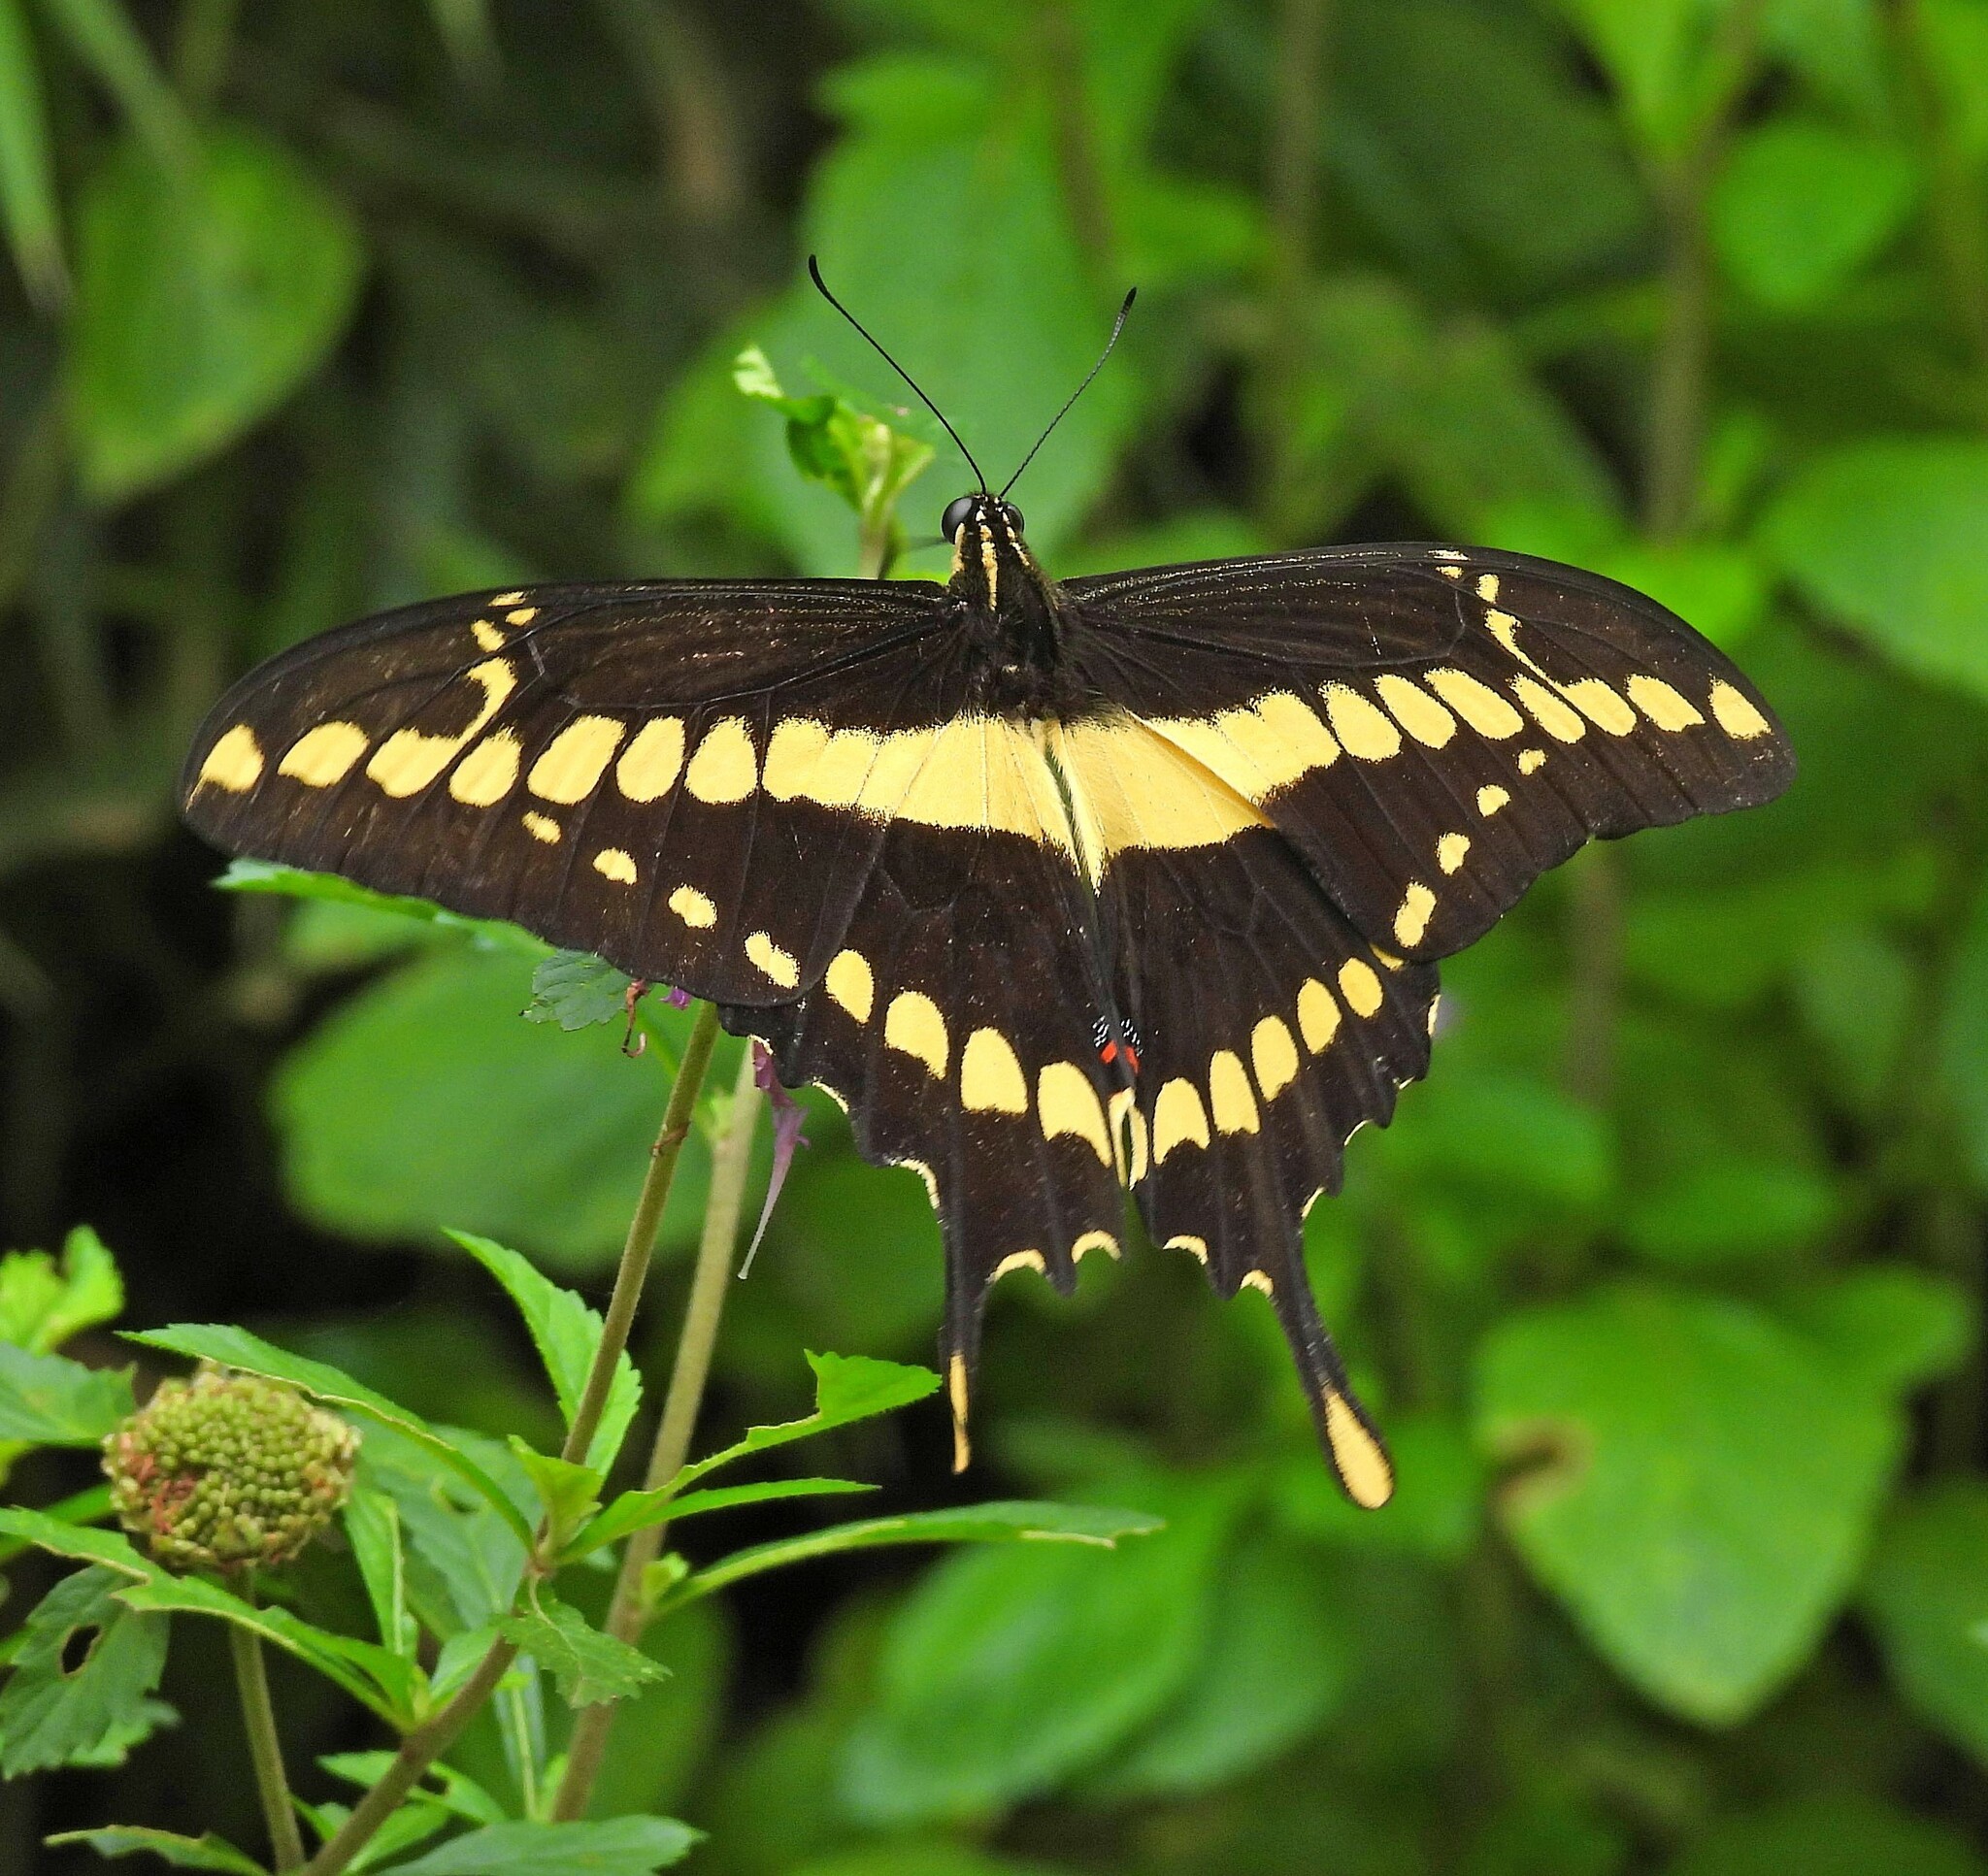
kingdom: Animalia
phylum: Arthropoda
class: Insecta
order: Lepidoptera
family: Papilionidae
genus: Papilio
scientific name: Papilio thoas
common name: King swallowtail
